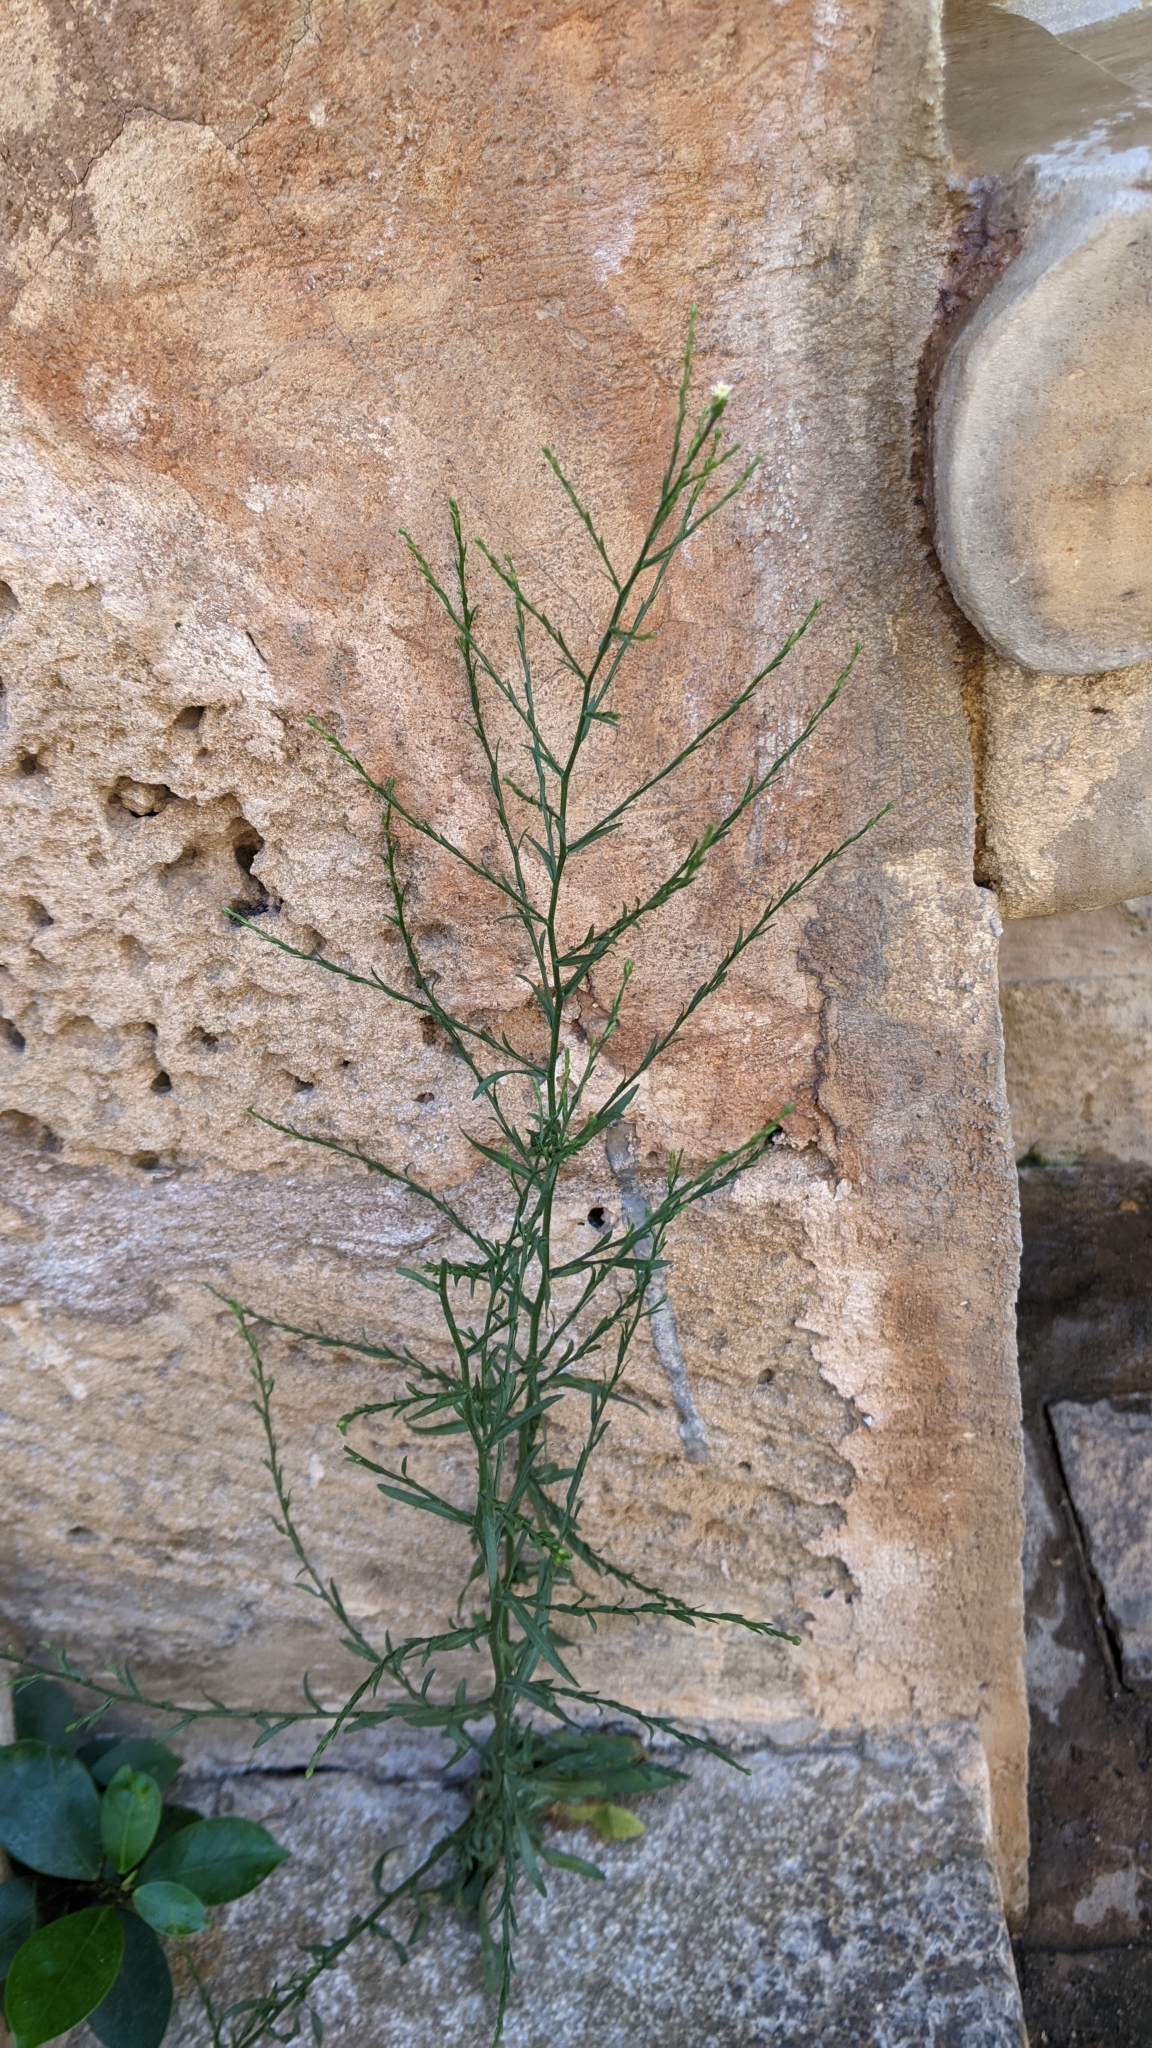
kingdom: Plantae
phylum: Tracheophyta
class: Magnoliopsida
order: Asterales
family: Asteraceae
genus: Symphyotrichum
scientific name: Symphyotrichum subulatum
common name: Annual saltmarsh aster
